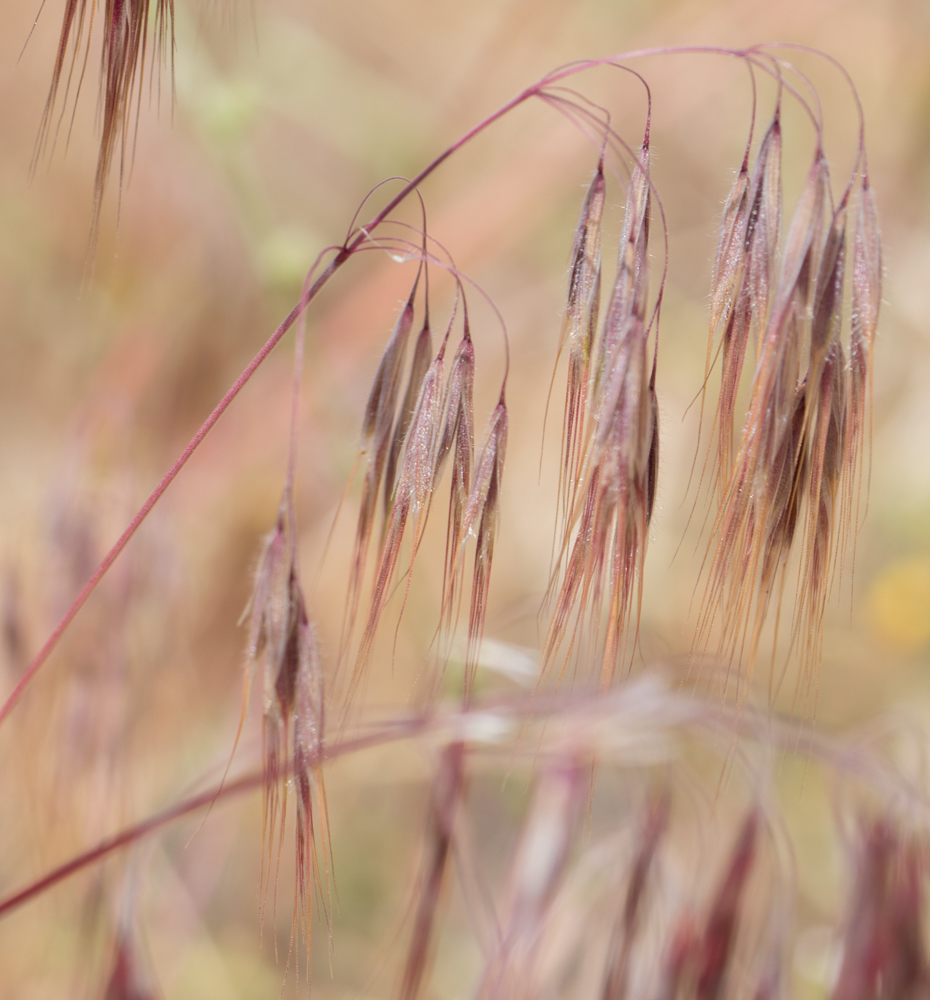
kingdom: Plantae
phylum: Tracheophyta
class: Liliopsida
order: Poales
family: Poaceae
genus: Bromus
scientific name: Bromus tectorum
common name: Cheatgrass
